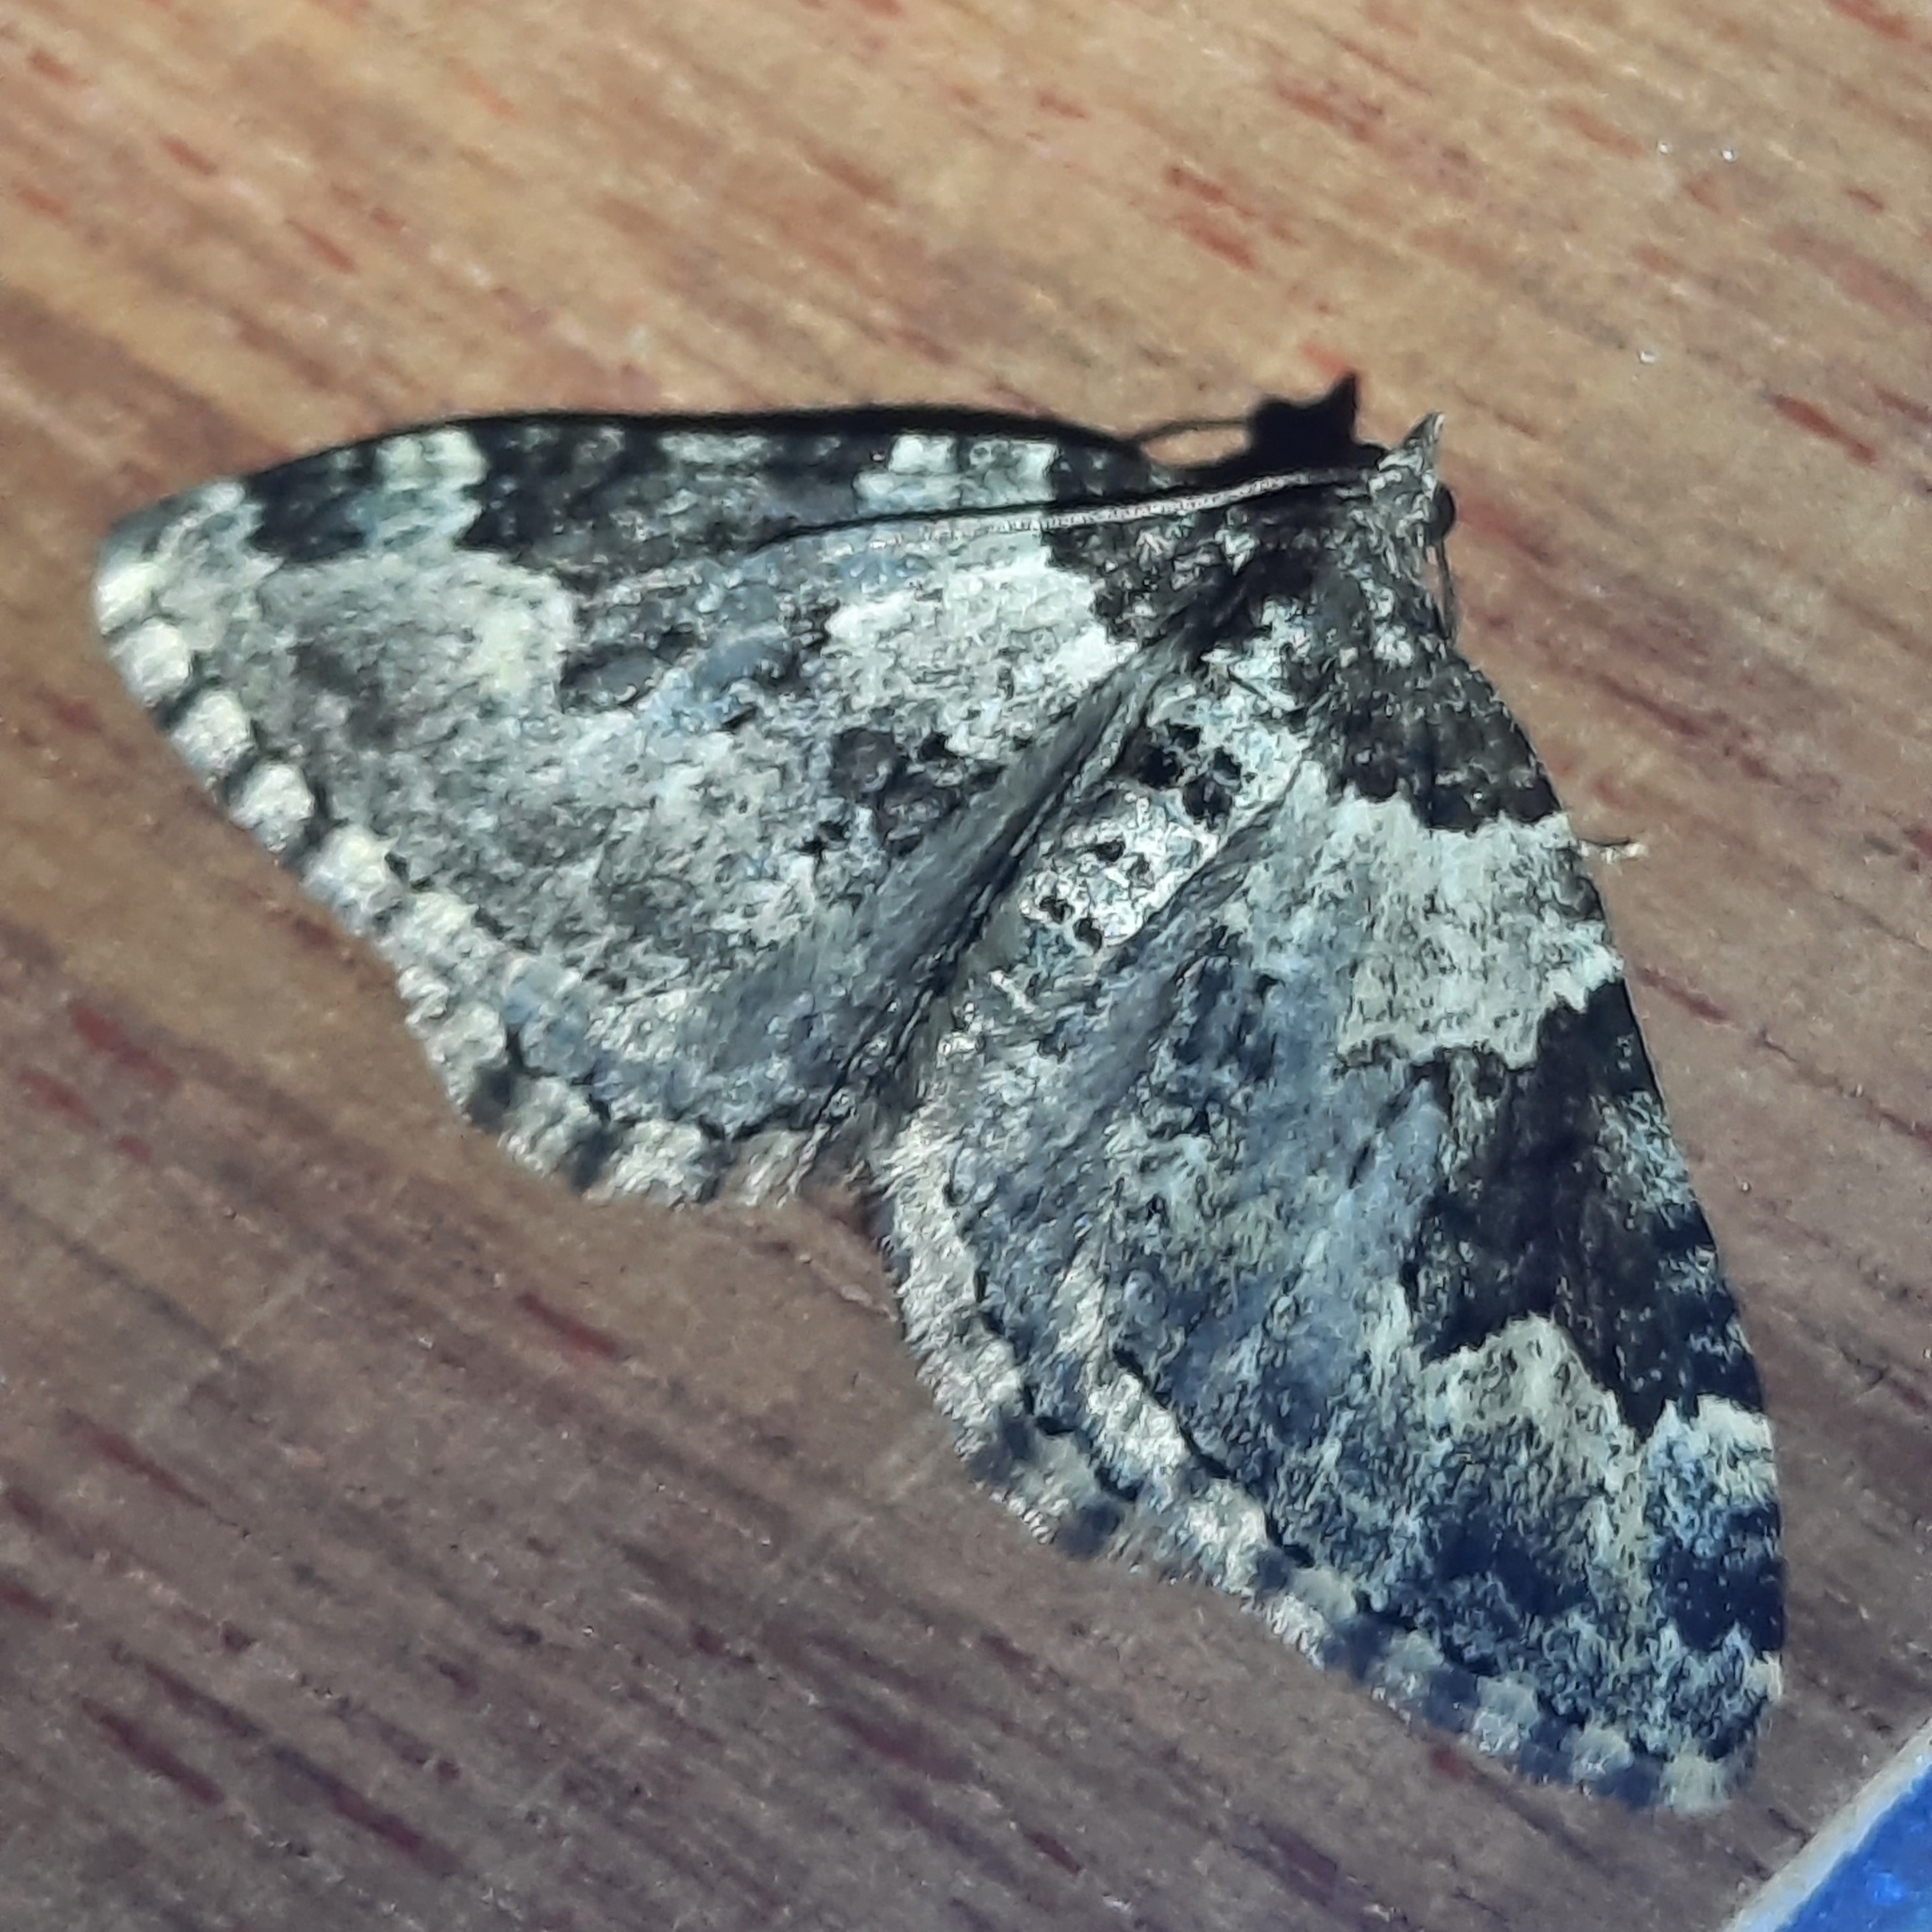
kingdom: Animalia
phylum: Arthropoda
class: Insecta
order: Lepidoptera
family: Geometridae
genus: Xanthorhoe
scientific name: Xanthorhoe fluctuata
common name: Garden carpet
